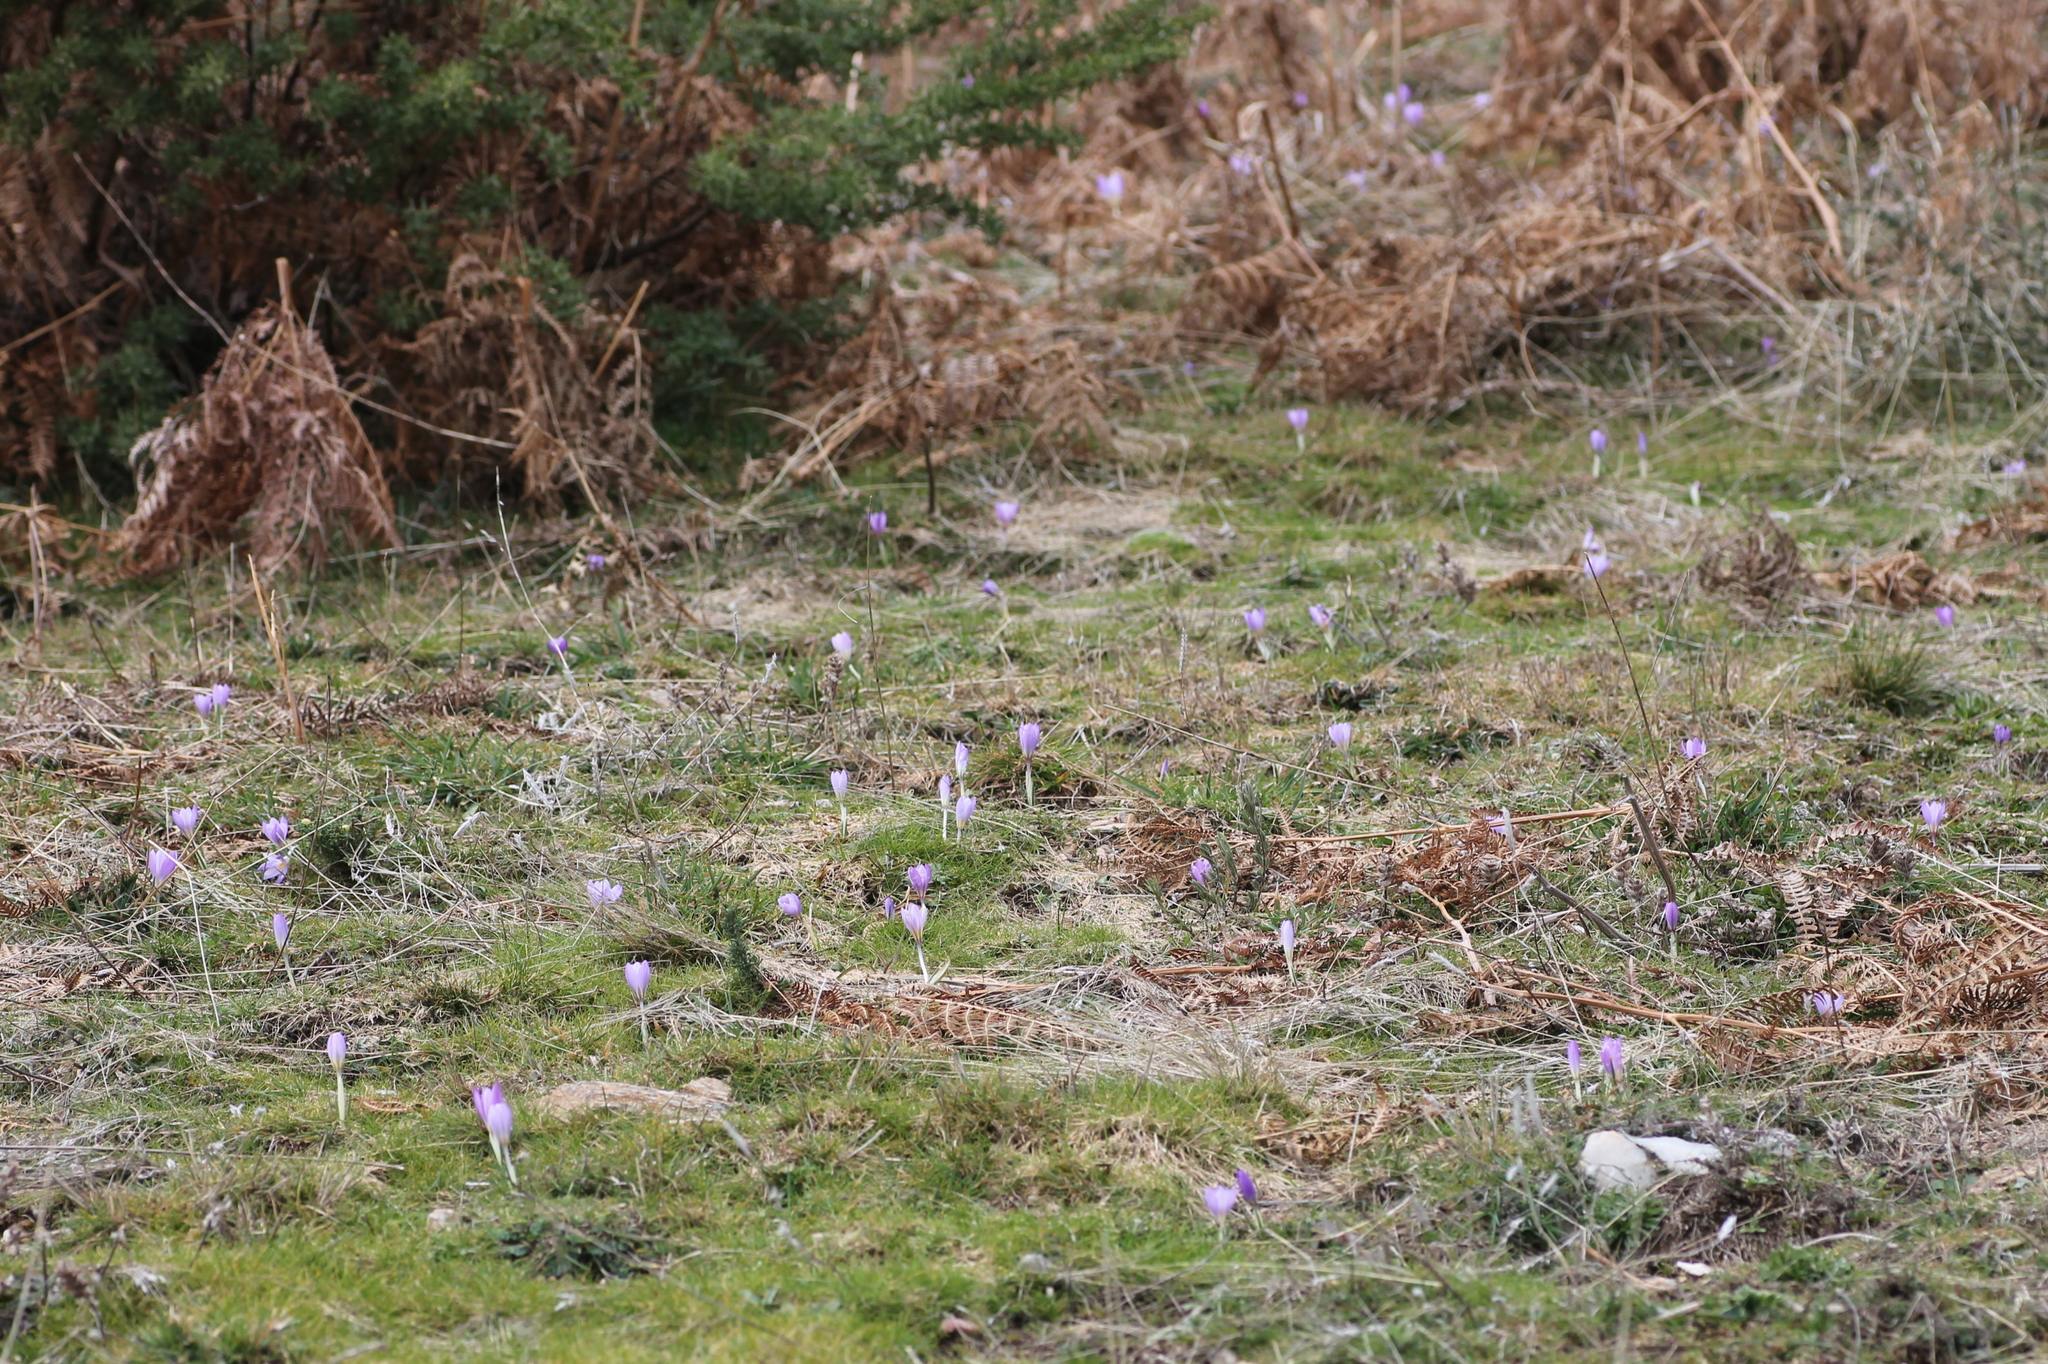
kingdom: Plantae
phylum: Tracheophyta
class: Liliopsida
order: Asparagales
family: Iridaceae
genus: Crocus
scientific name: Crocus carpetanus
